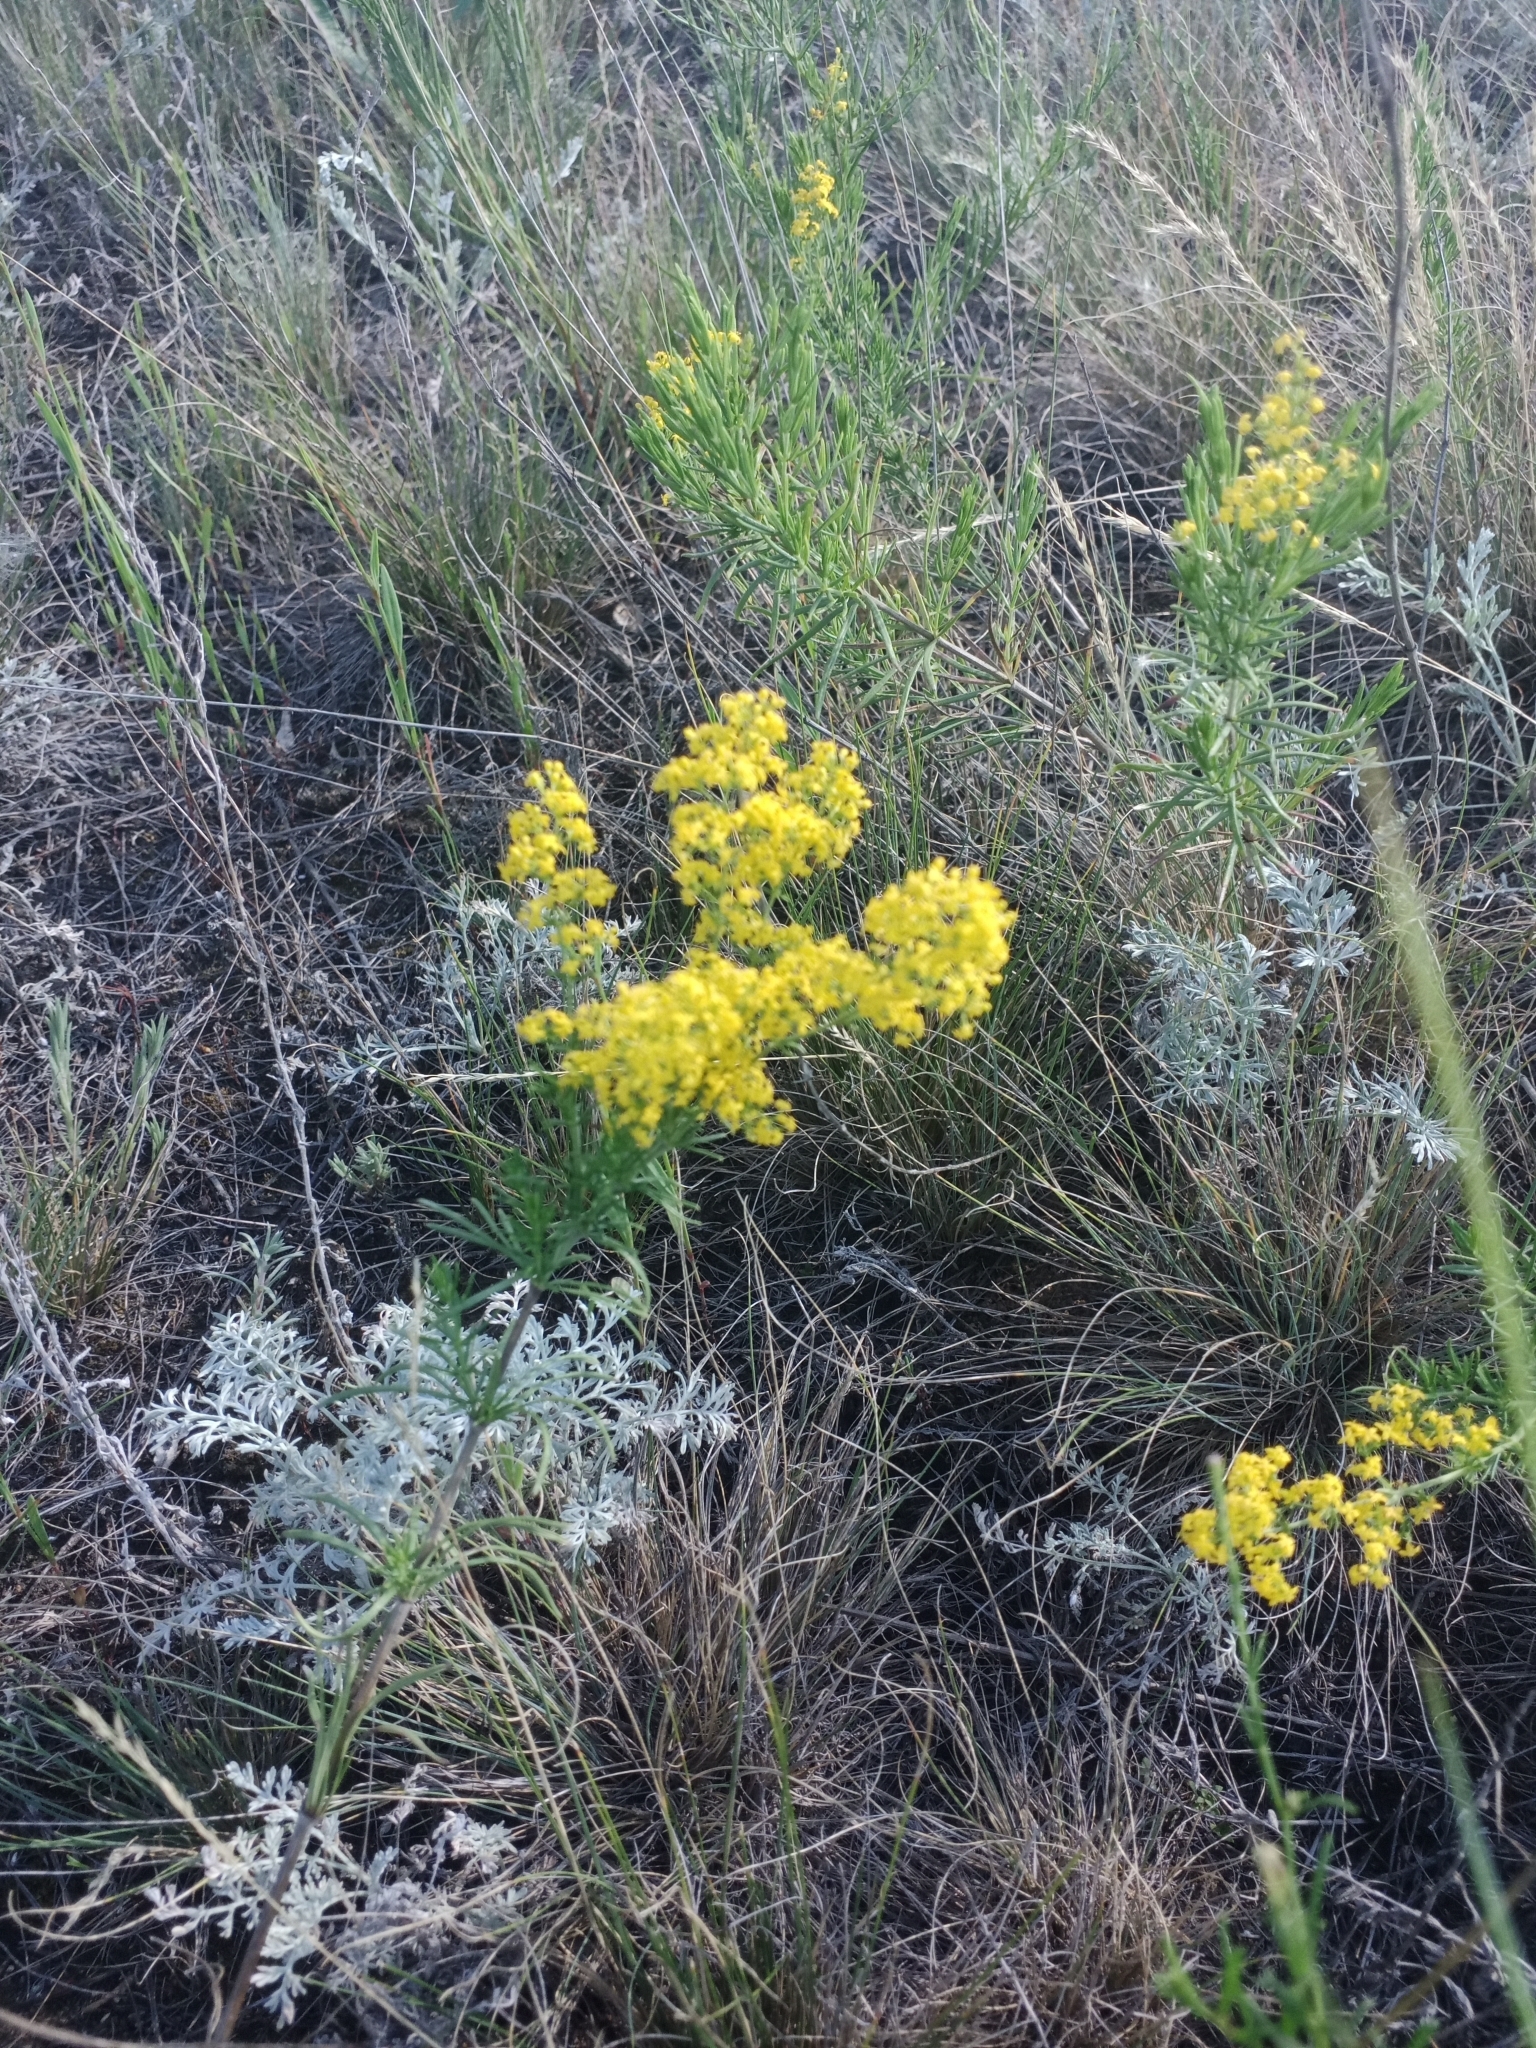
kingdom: Plantae
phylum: Tracheophyta
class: Magnoliopsida
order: Gentianales
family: Rubiaceae
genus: Galium
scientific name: Galium verum
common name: Lady's bedstraw
